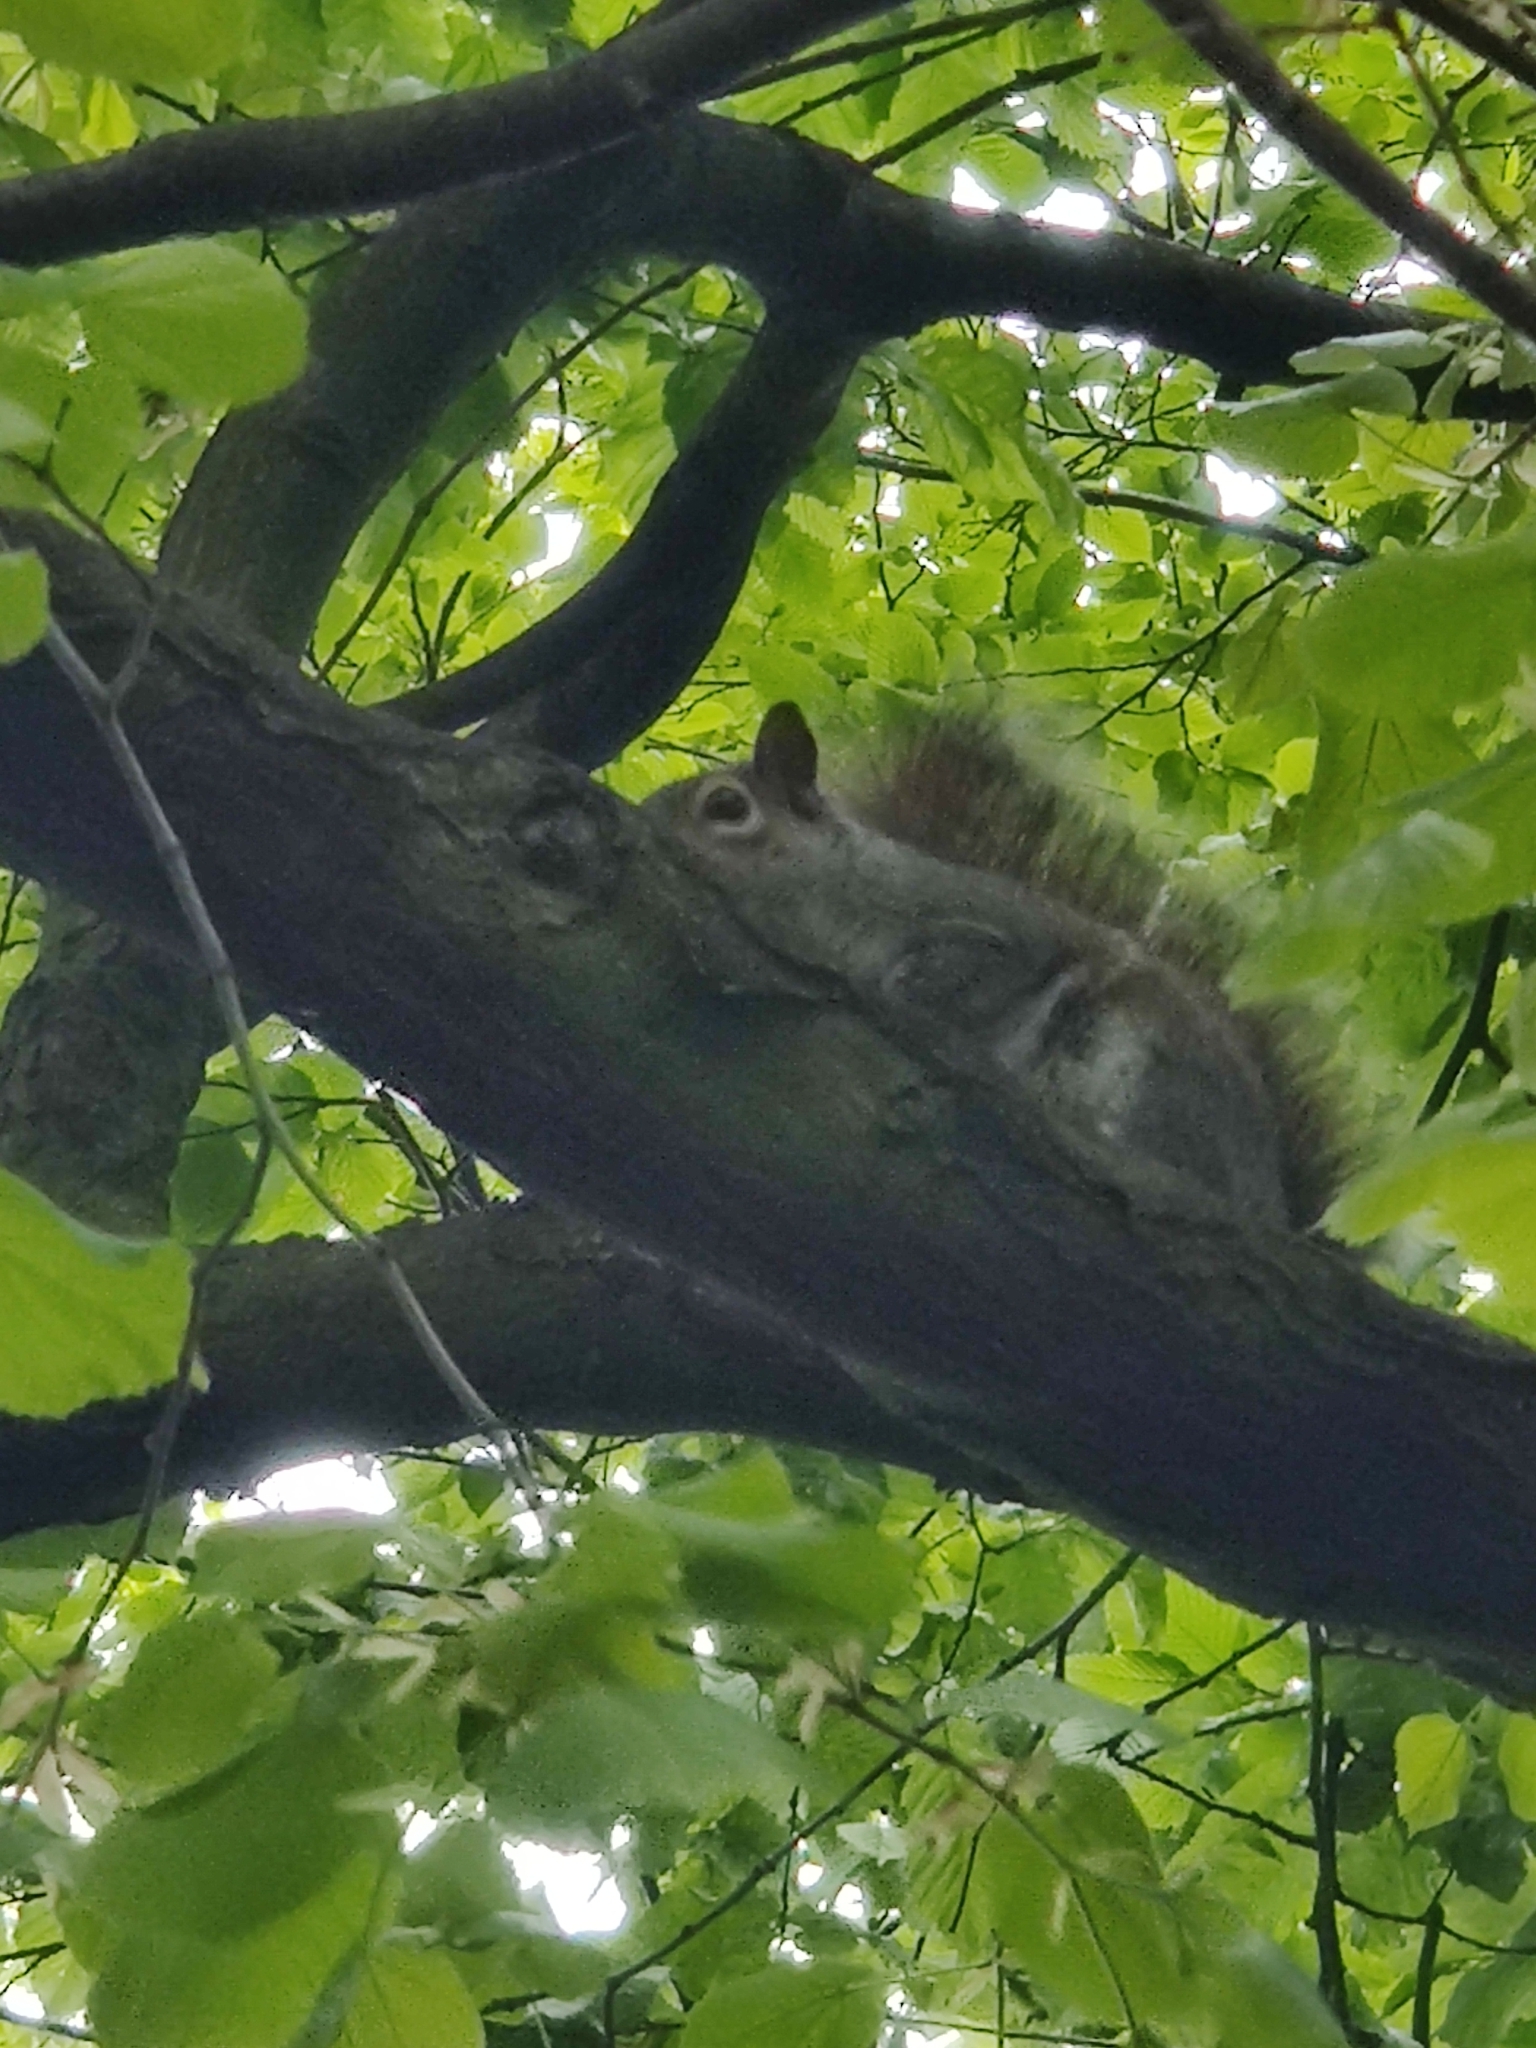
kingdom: Animalia
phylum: Chordata
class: Mammalia
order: Rodentia
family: Sciuridae
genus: Sciurus
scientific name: Sciurus carolinensis
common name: Eastern gray squirrel
